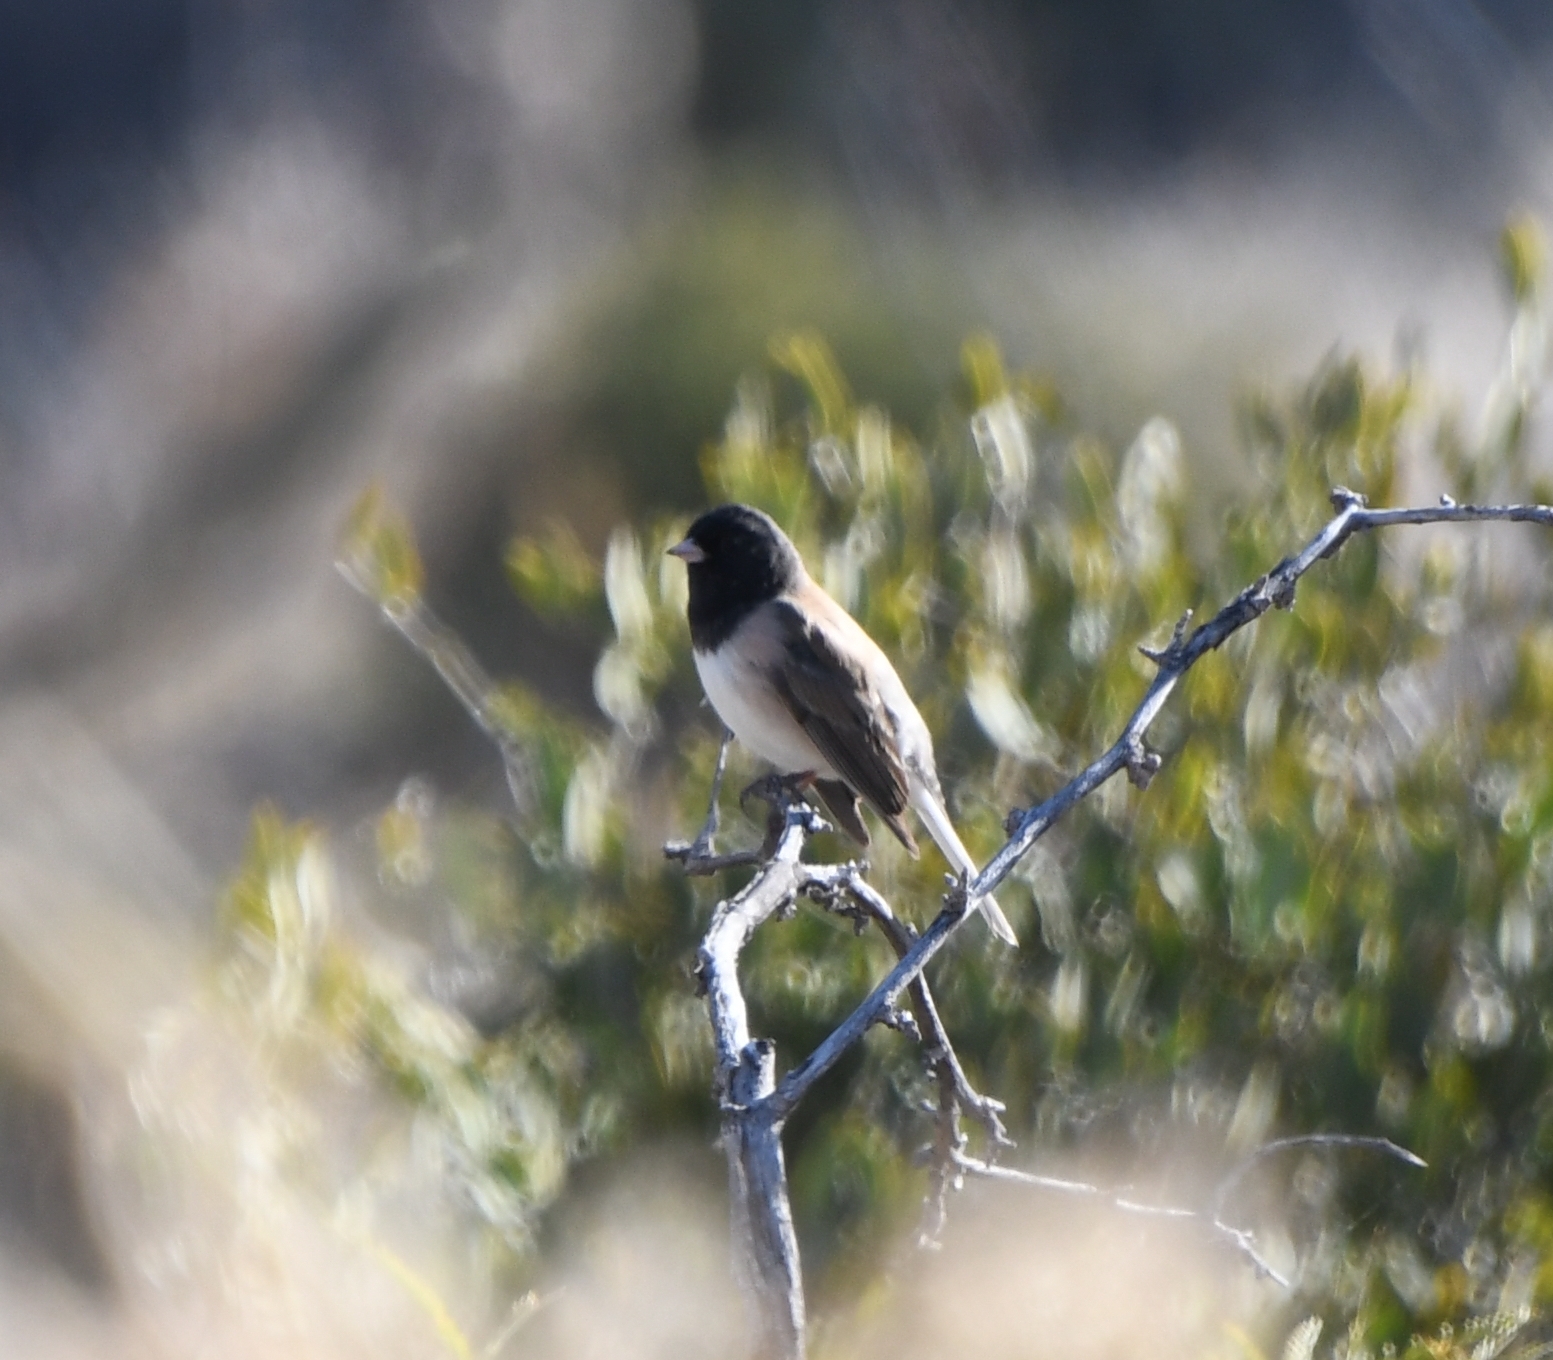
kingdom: Animalia
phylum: Chordata
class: Aves
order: Passeriformes
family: Passerellidae
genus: Junco
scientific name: Junco hyemalis
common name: Dark-eyed junco
